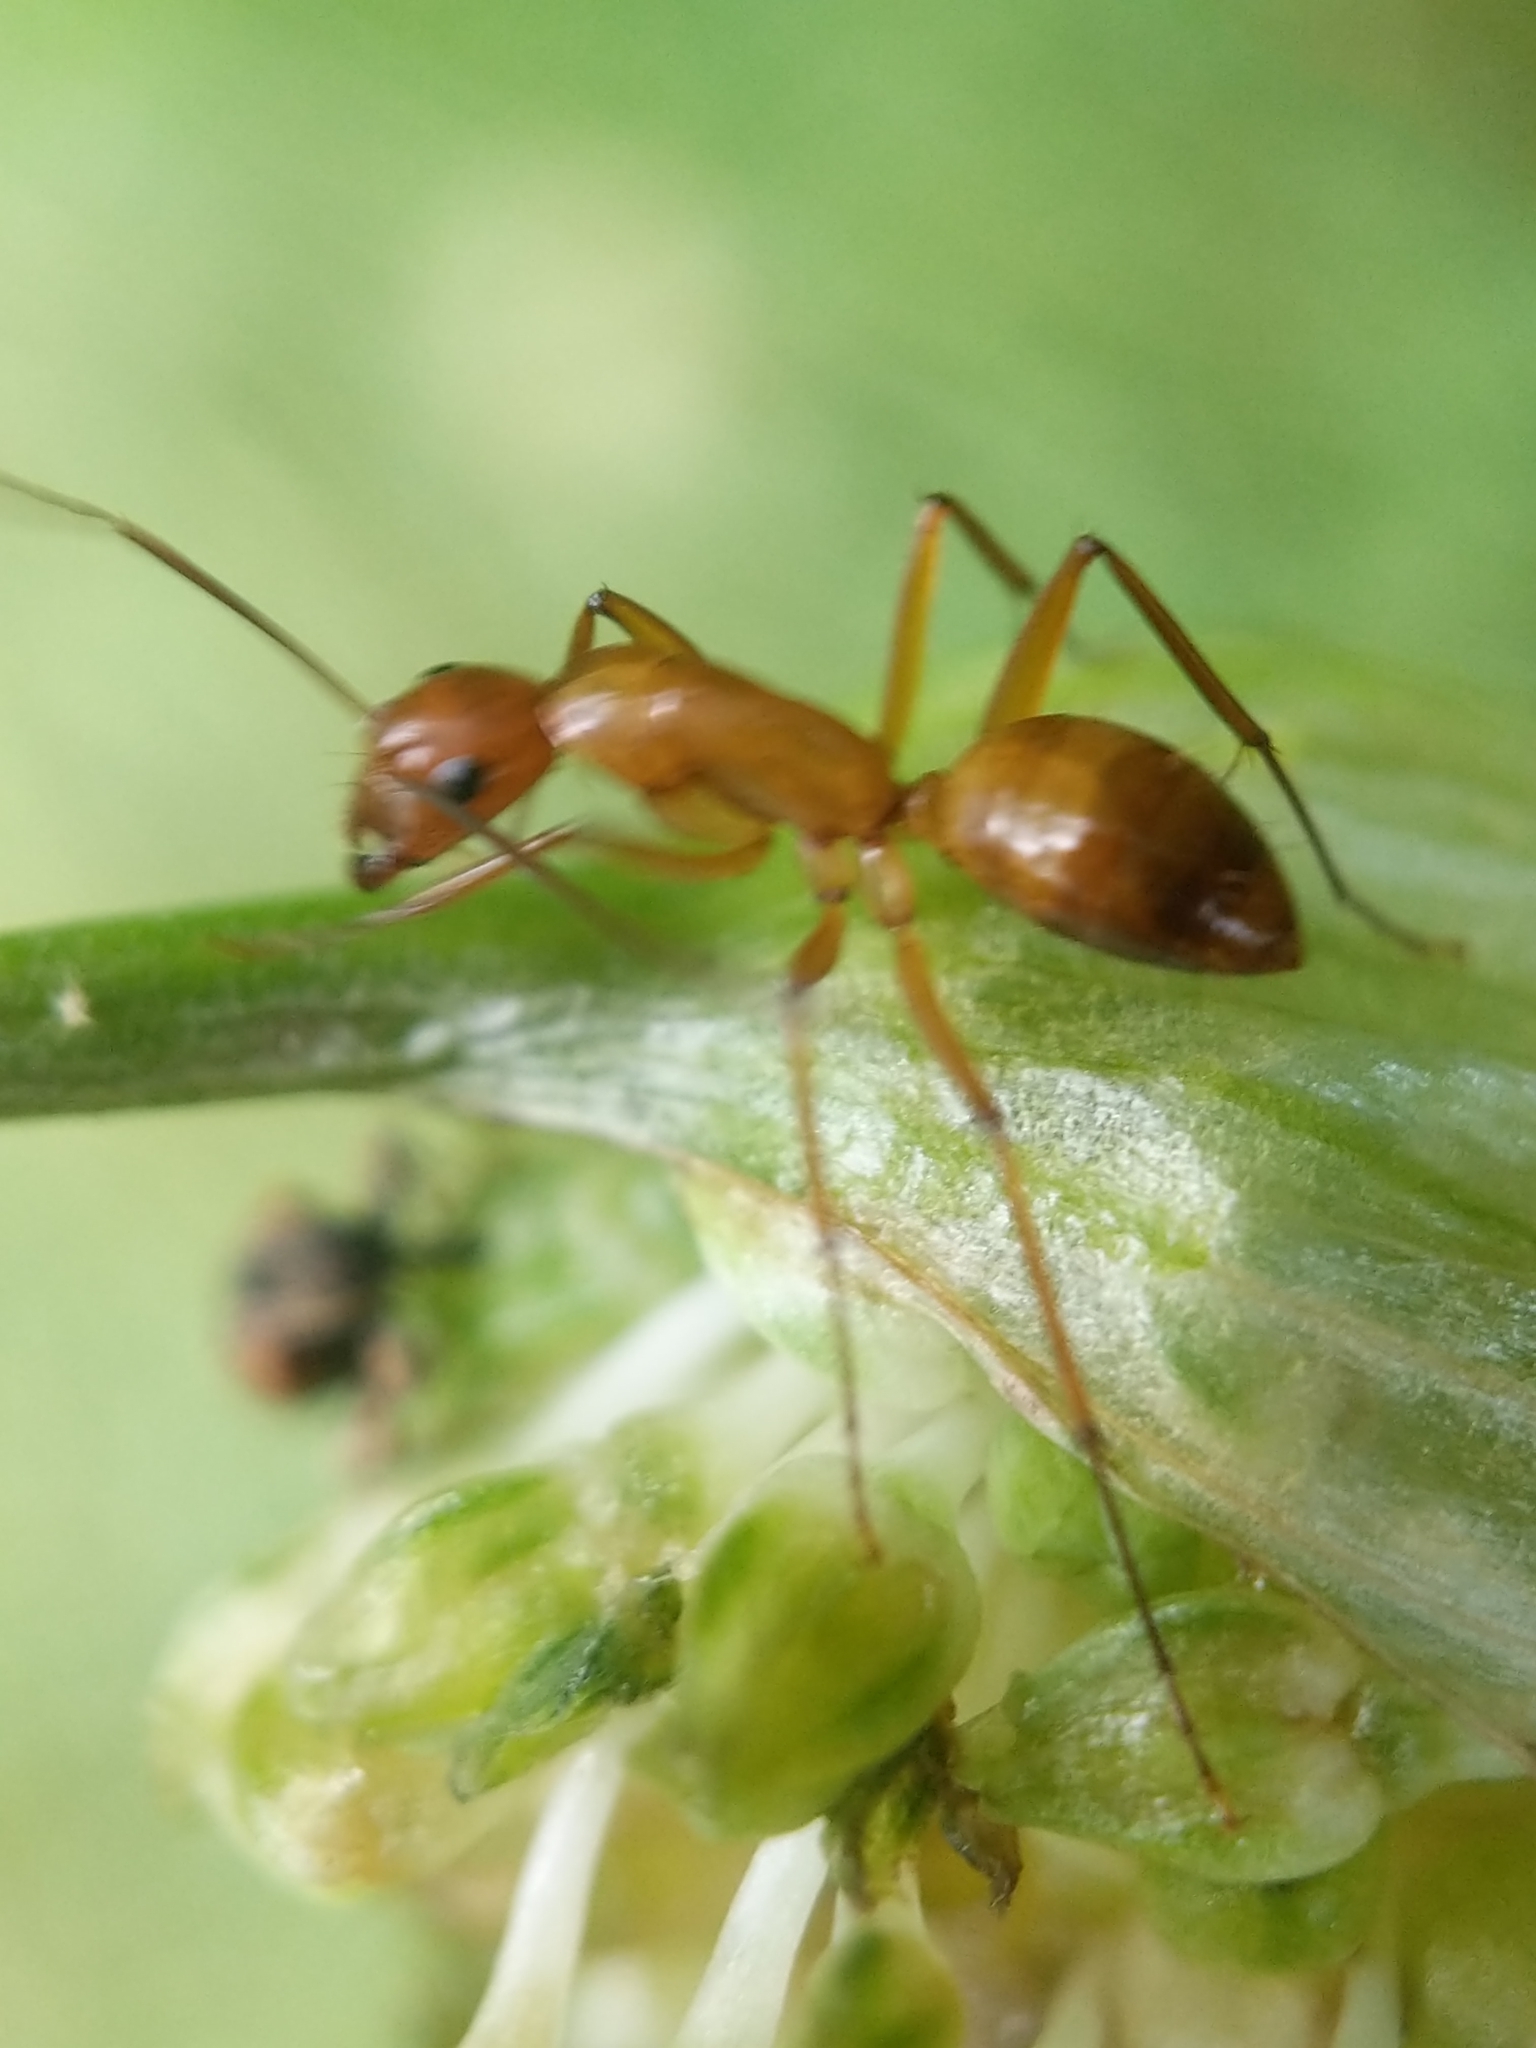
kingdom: Animalia
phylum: Arthropoda
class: Insecta
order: Hymenoptera
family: Formicidae
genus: Camponotus
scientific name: Camponotus castaneus
